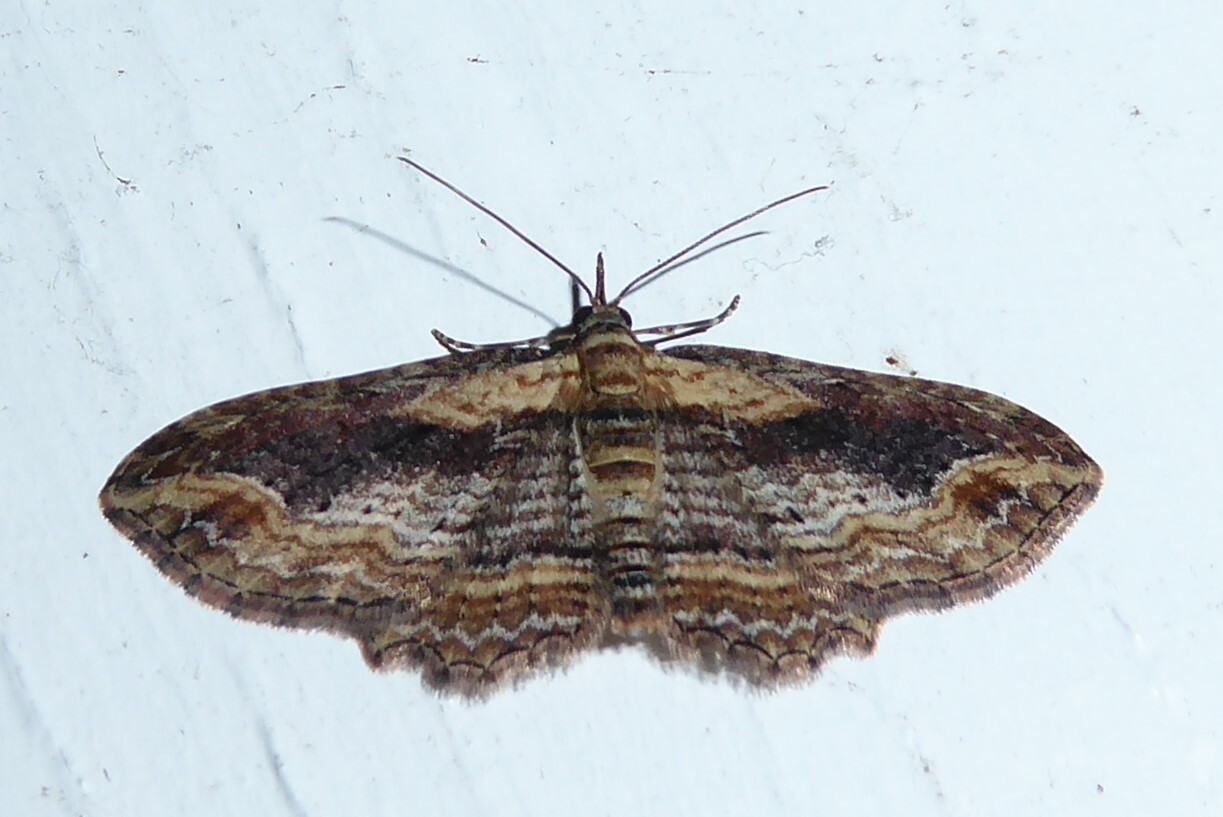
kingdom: Animalia
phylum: Arthropoda
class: Insecta
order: Lepidoptera
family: Geometridae
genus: Chloroclystis
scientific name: Chloroclystis filata
